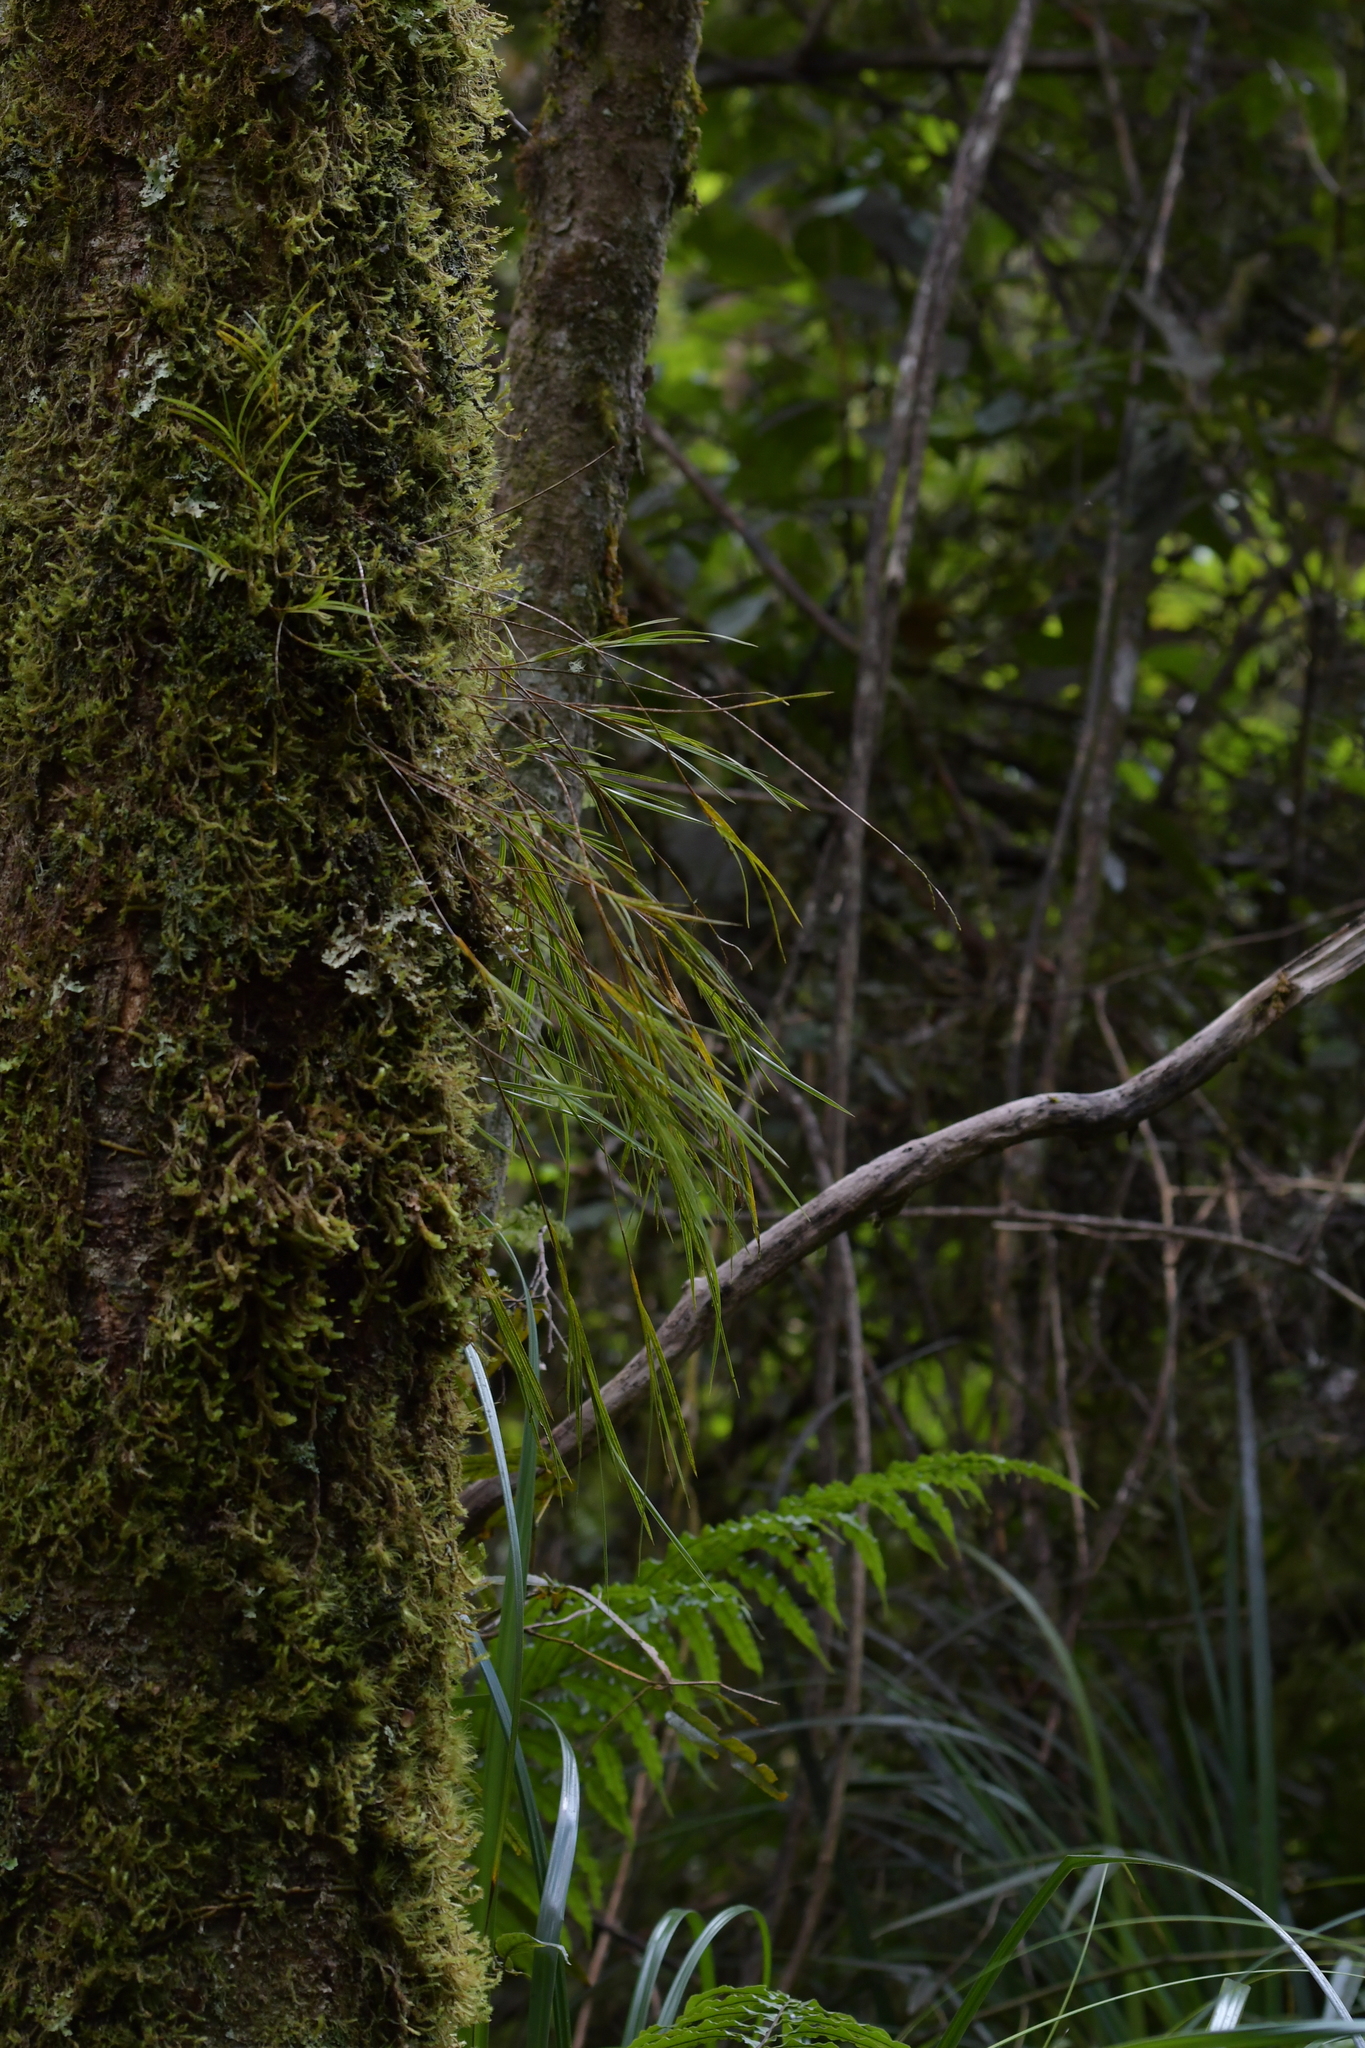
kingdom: Plantae
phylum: Tracheophyta
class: Liliopsida
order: Asparagales
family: Orchidaceae
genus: Earina
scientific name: Earina mucronata
